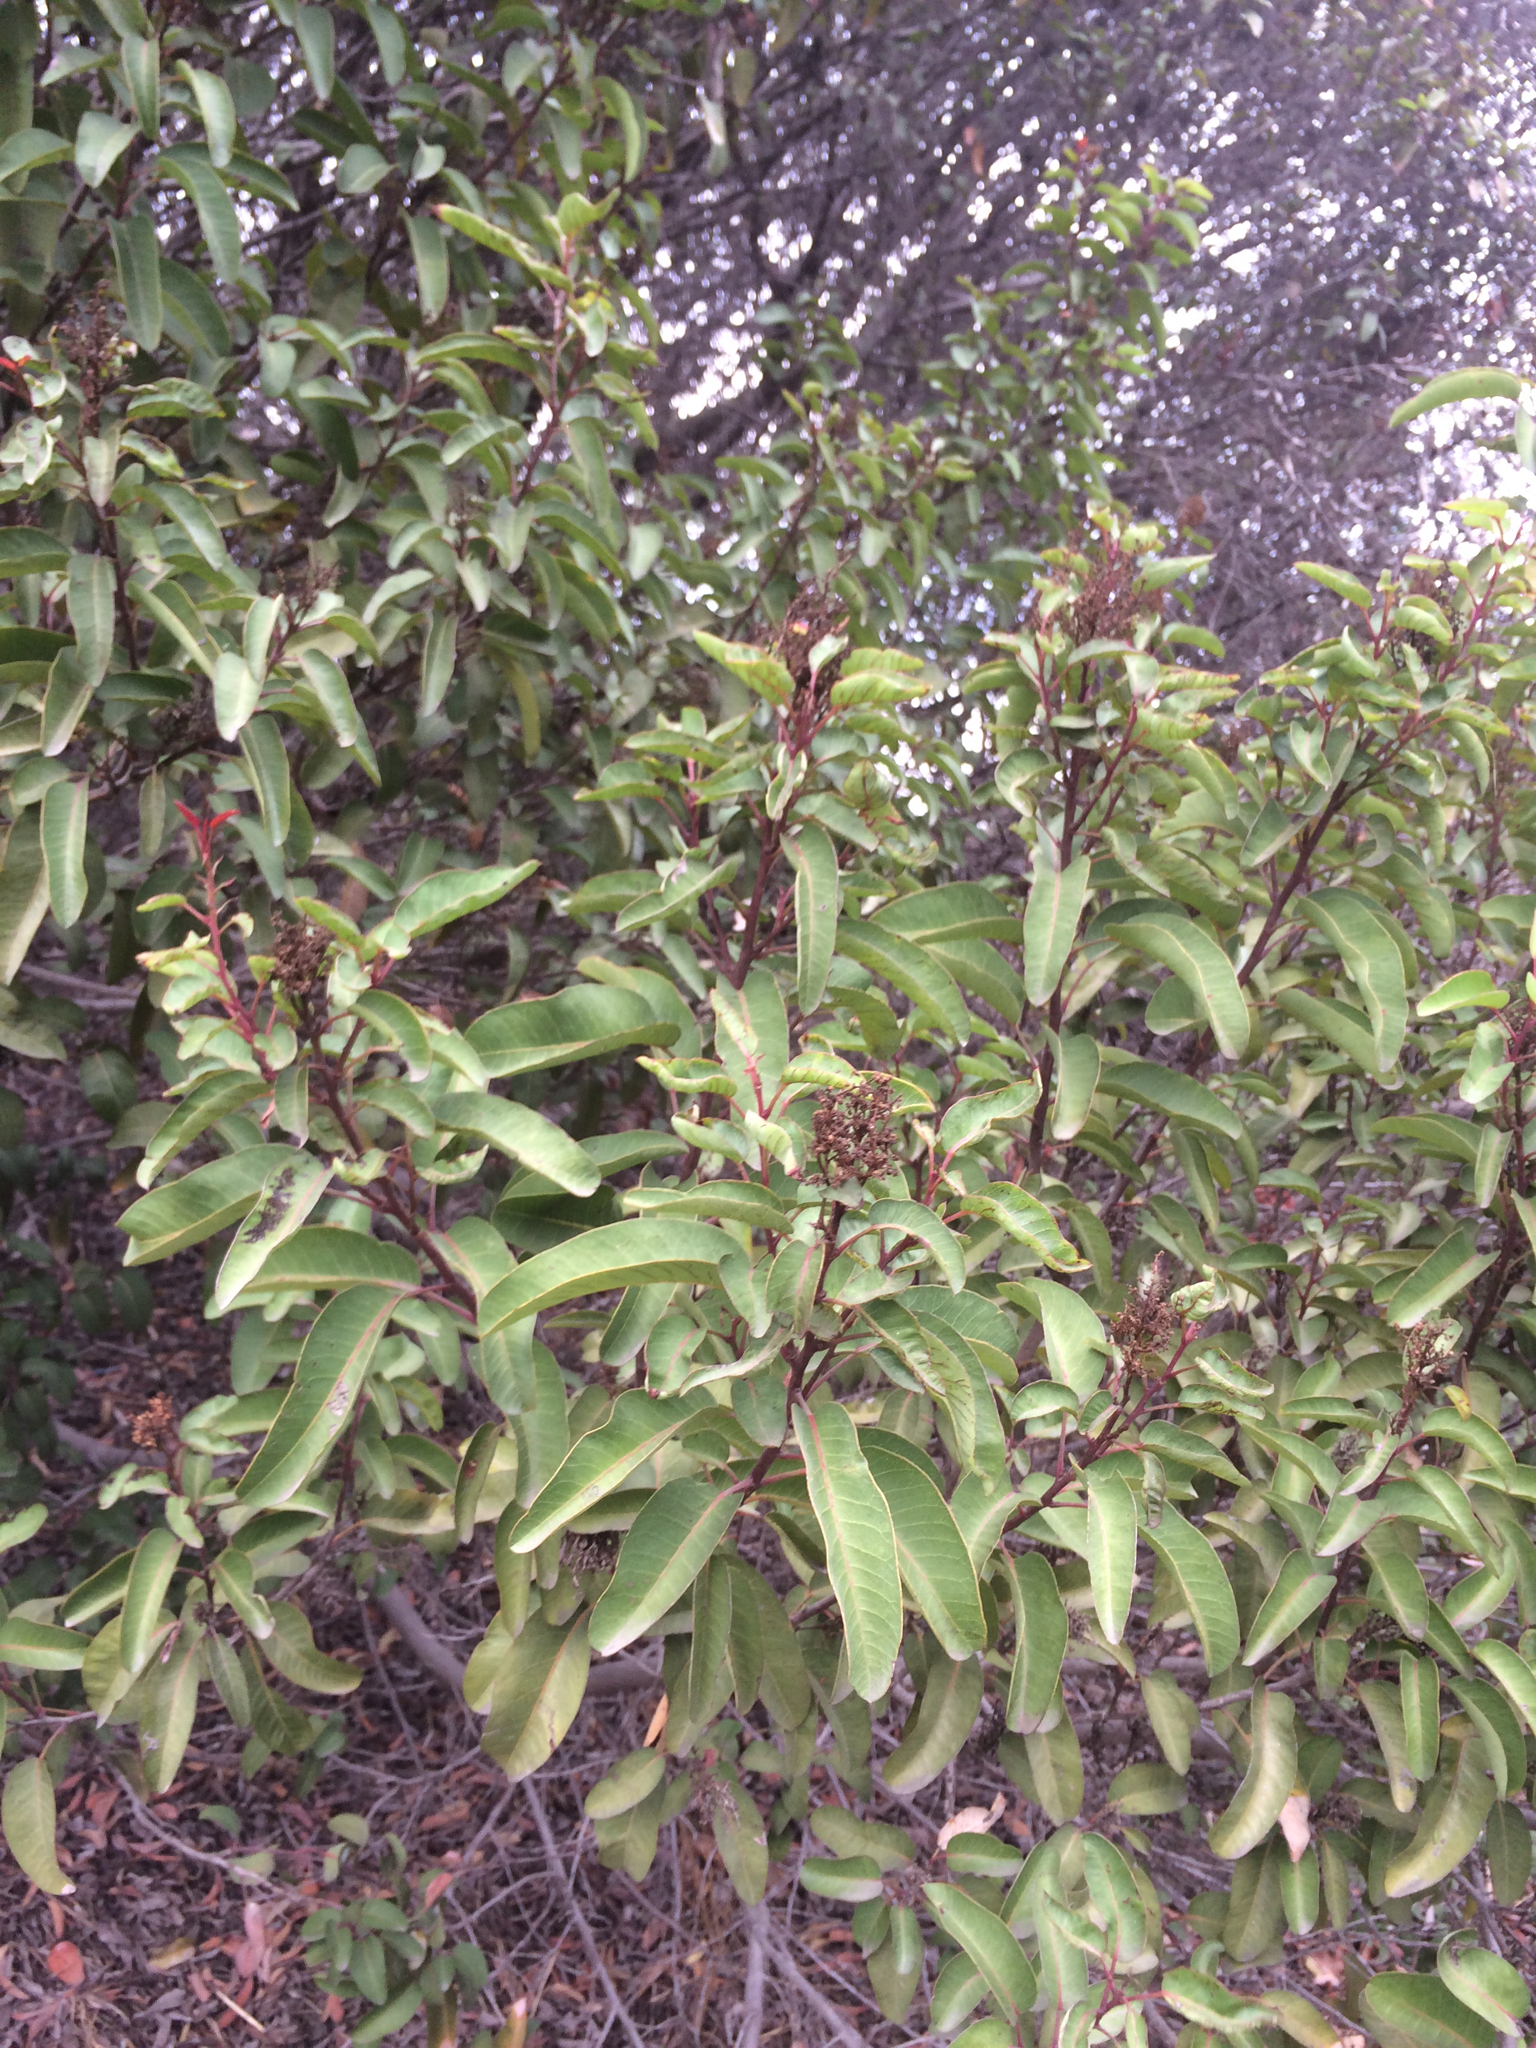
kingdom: Plantae
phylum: Tracheophyta
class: Magnoliopsida
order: Sapindales
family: Anacardiaceae
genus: Malosma
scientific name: Malosma laurina
